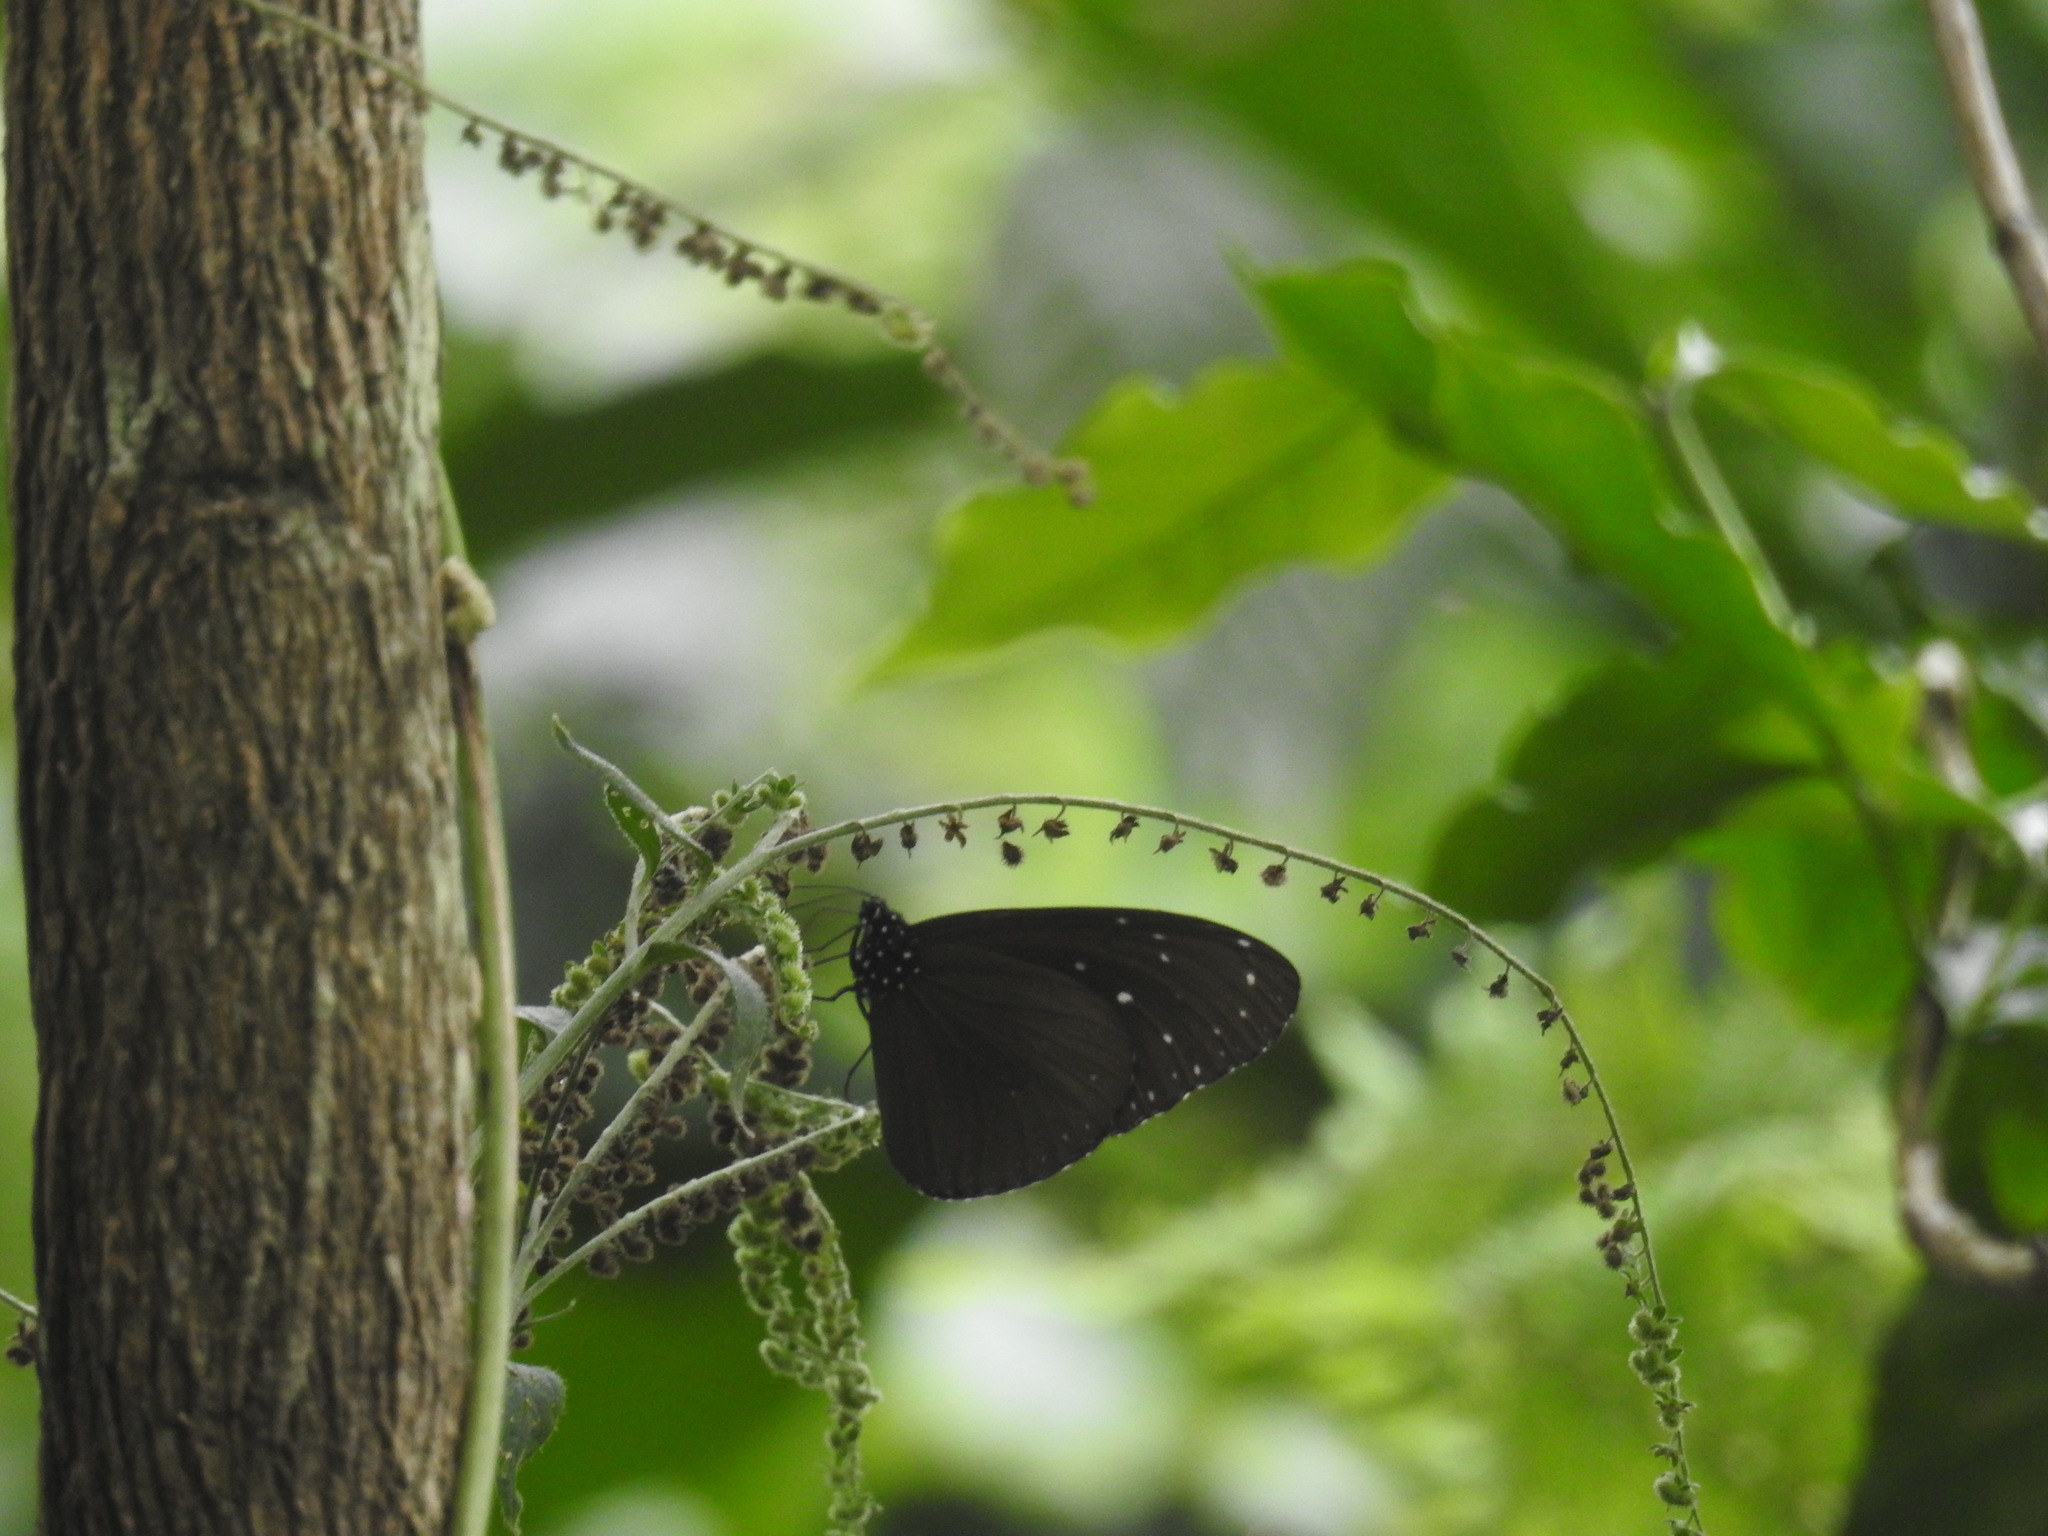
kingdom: Animalia
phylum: Arthropoda
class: Insecta
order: Lepidoptera
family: Nymphalidae
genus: Euploea
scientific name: Euploea mulciber
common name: Striped blue crow butterfly
